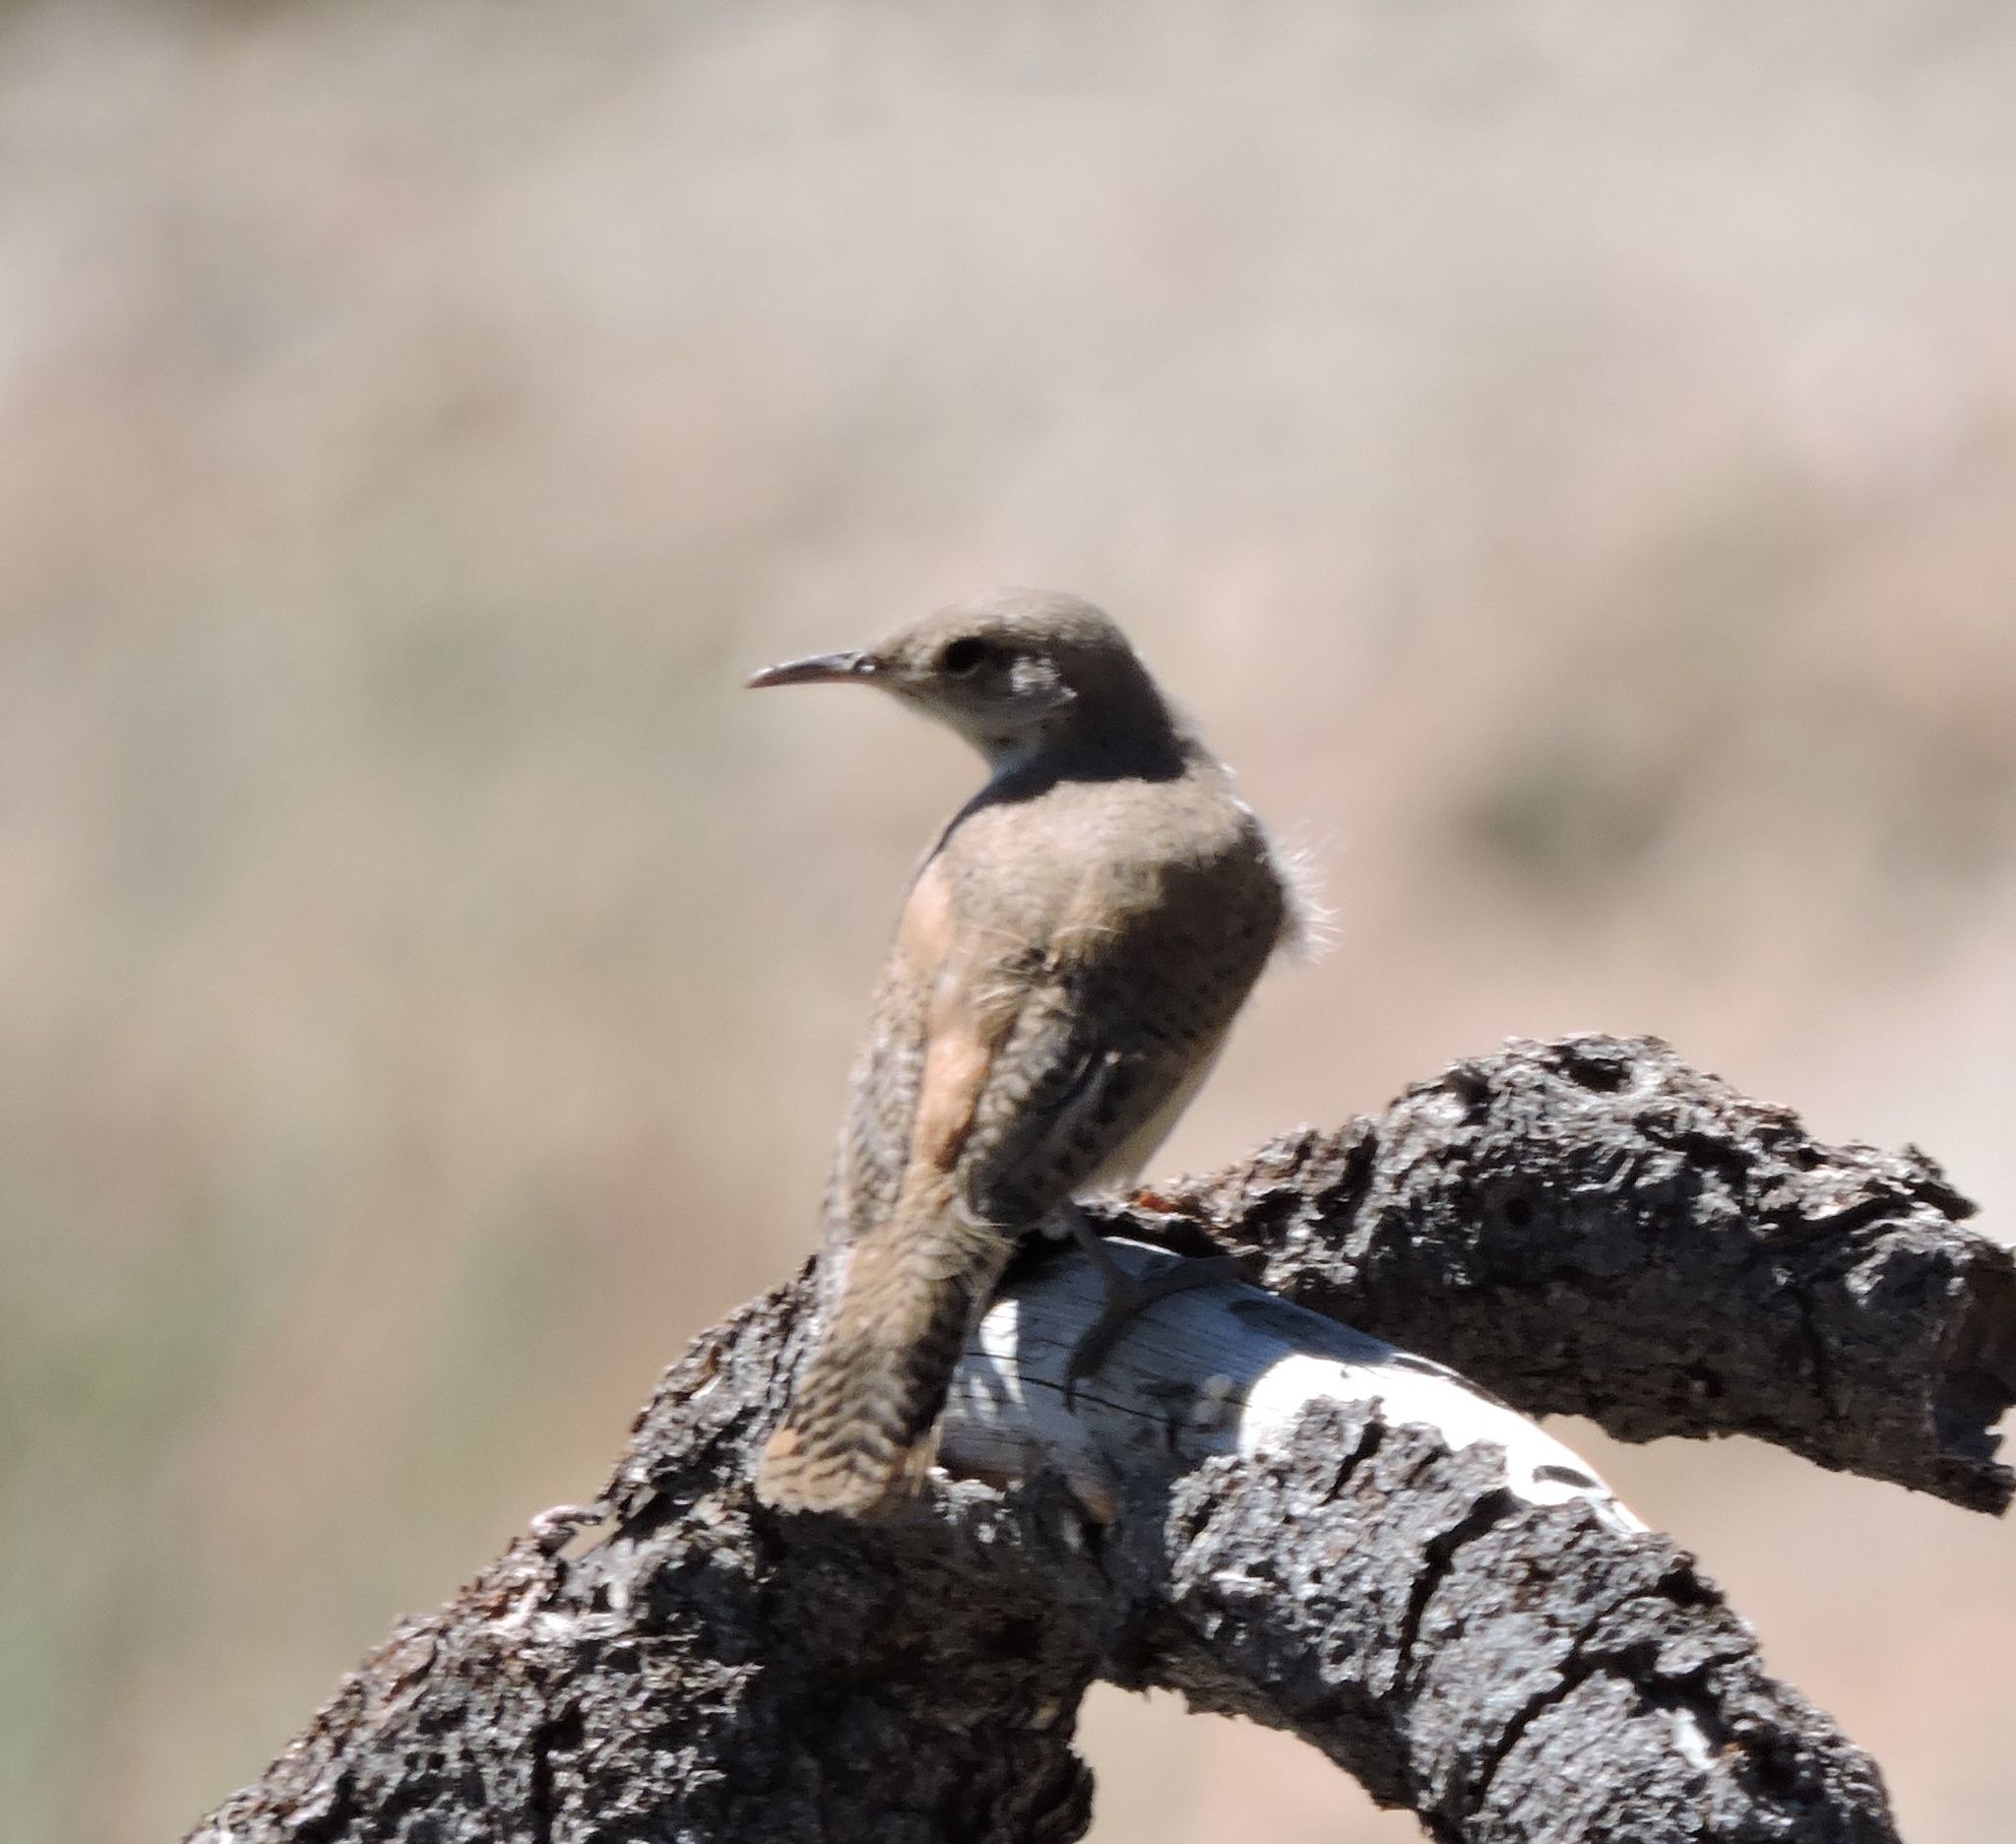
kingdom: Animalia
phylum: Chordata
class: Aves
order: Passeriformes
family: Troglodytidae
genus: Salpinctes
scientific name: Salpinctes obsoletus
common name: Rock wren
